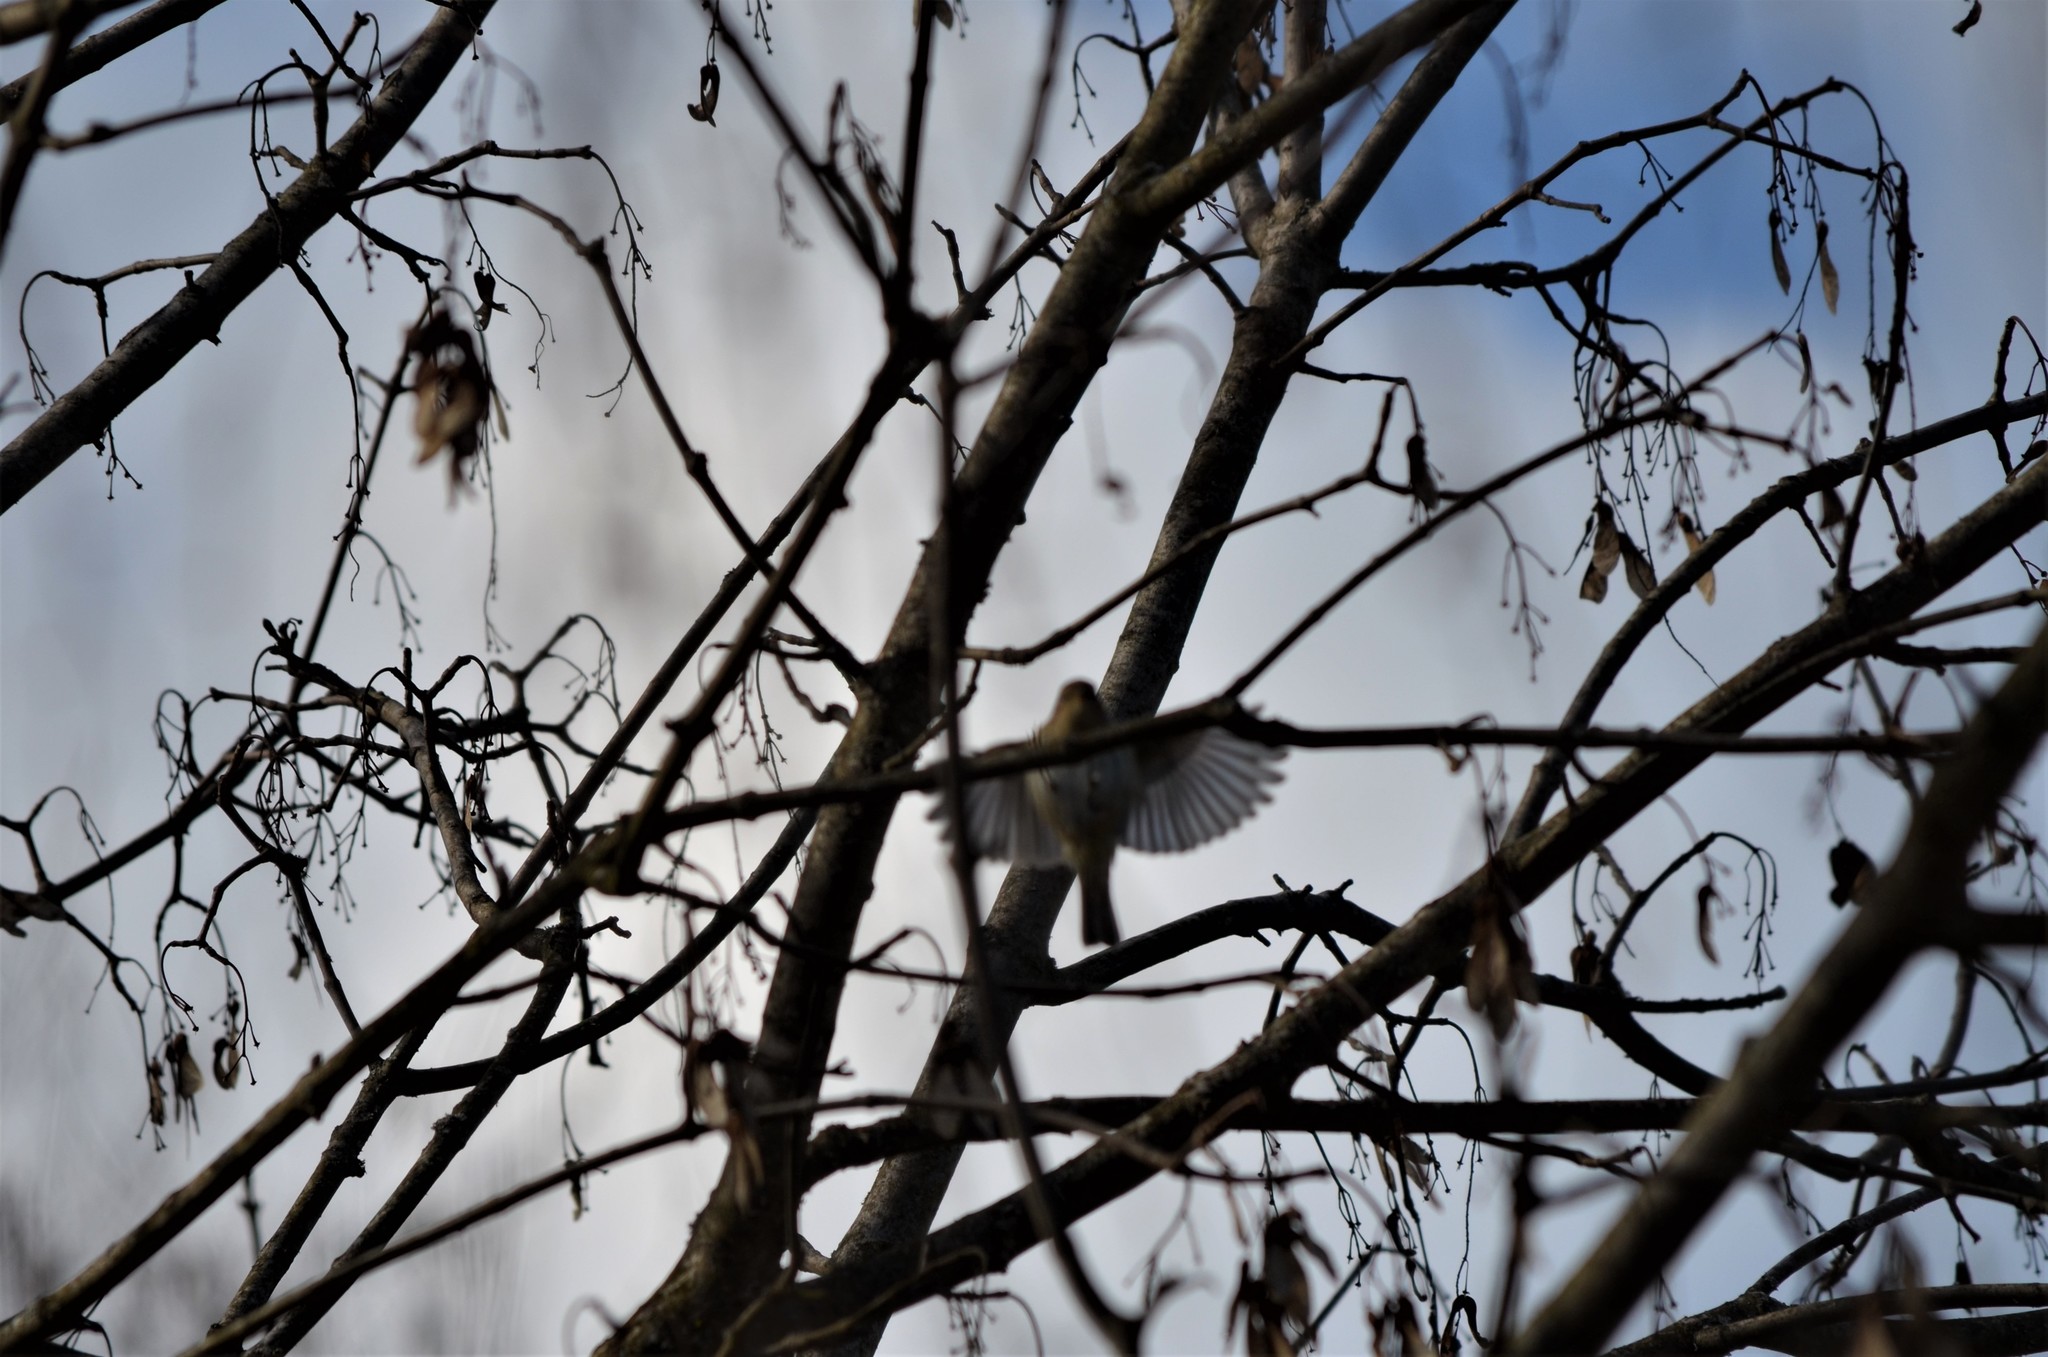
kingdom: Animalia
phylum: Chordata
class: Aves
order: Passeriformes
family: Phylloscopidae
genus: Phylloscopus
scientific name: Phylloscopus collybita
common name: Common chiffchaff
